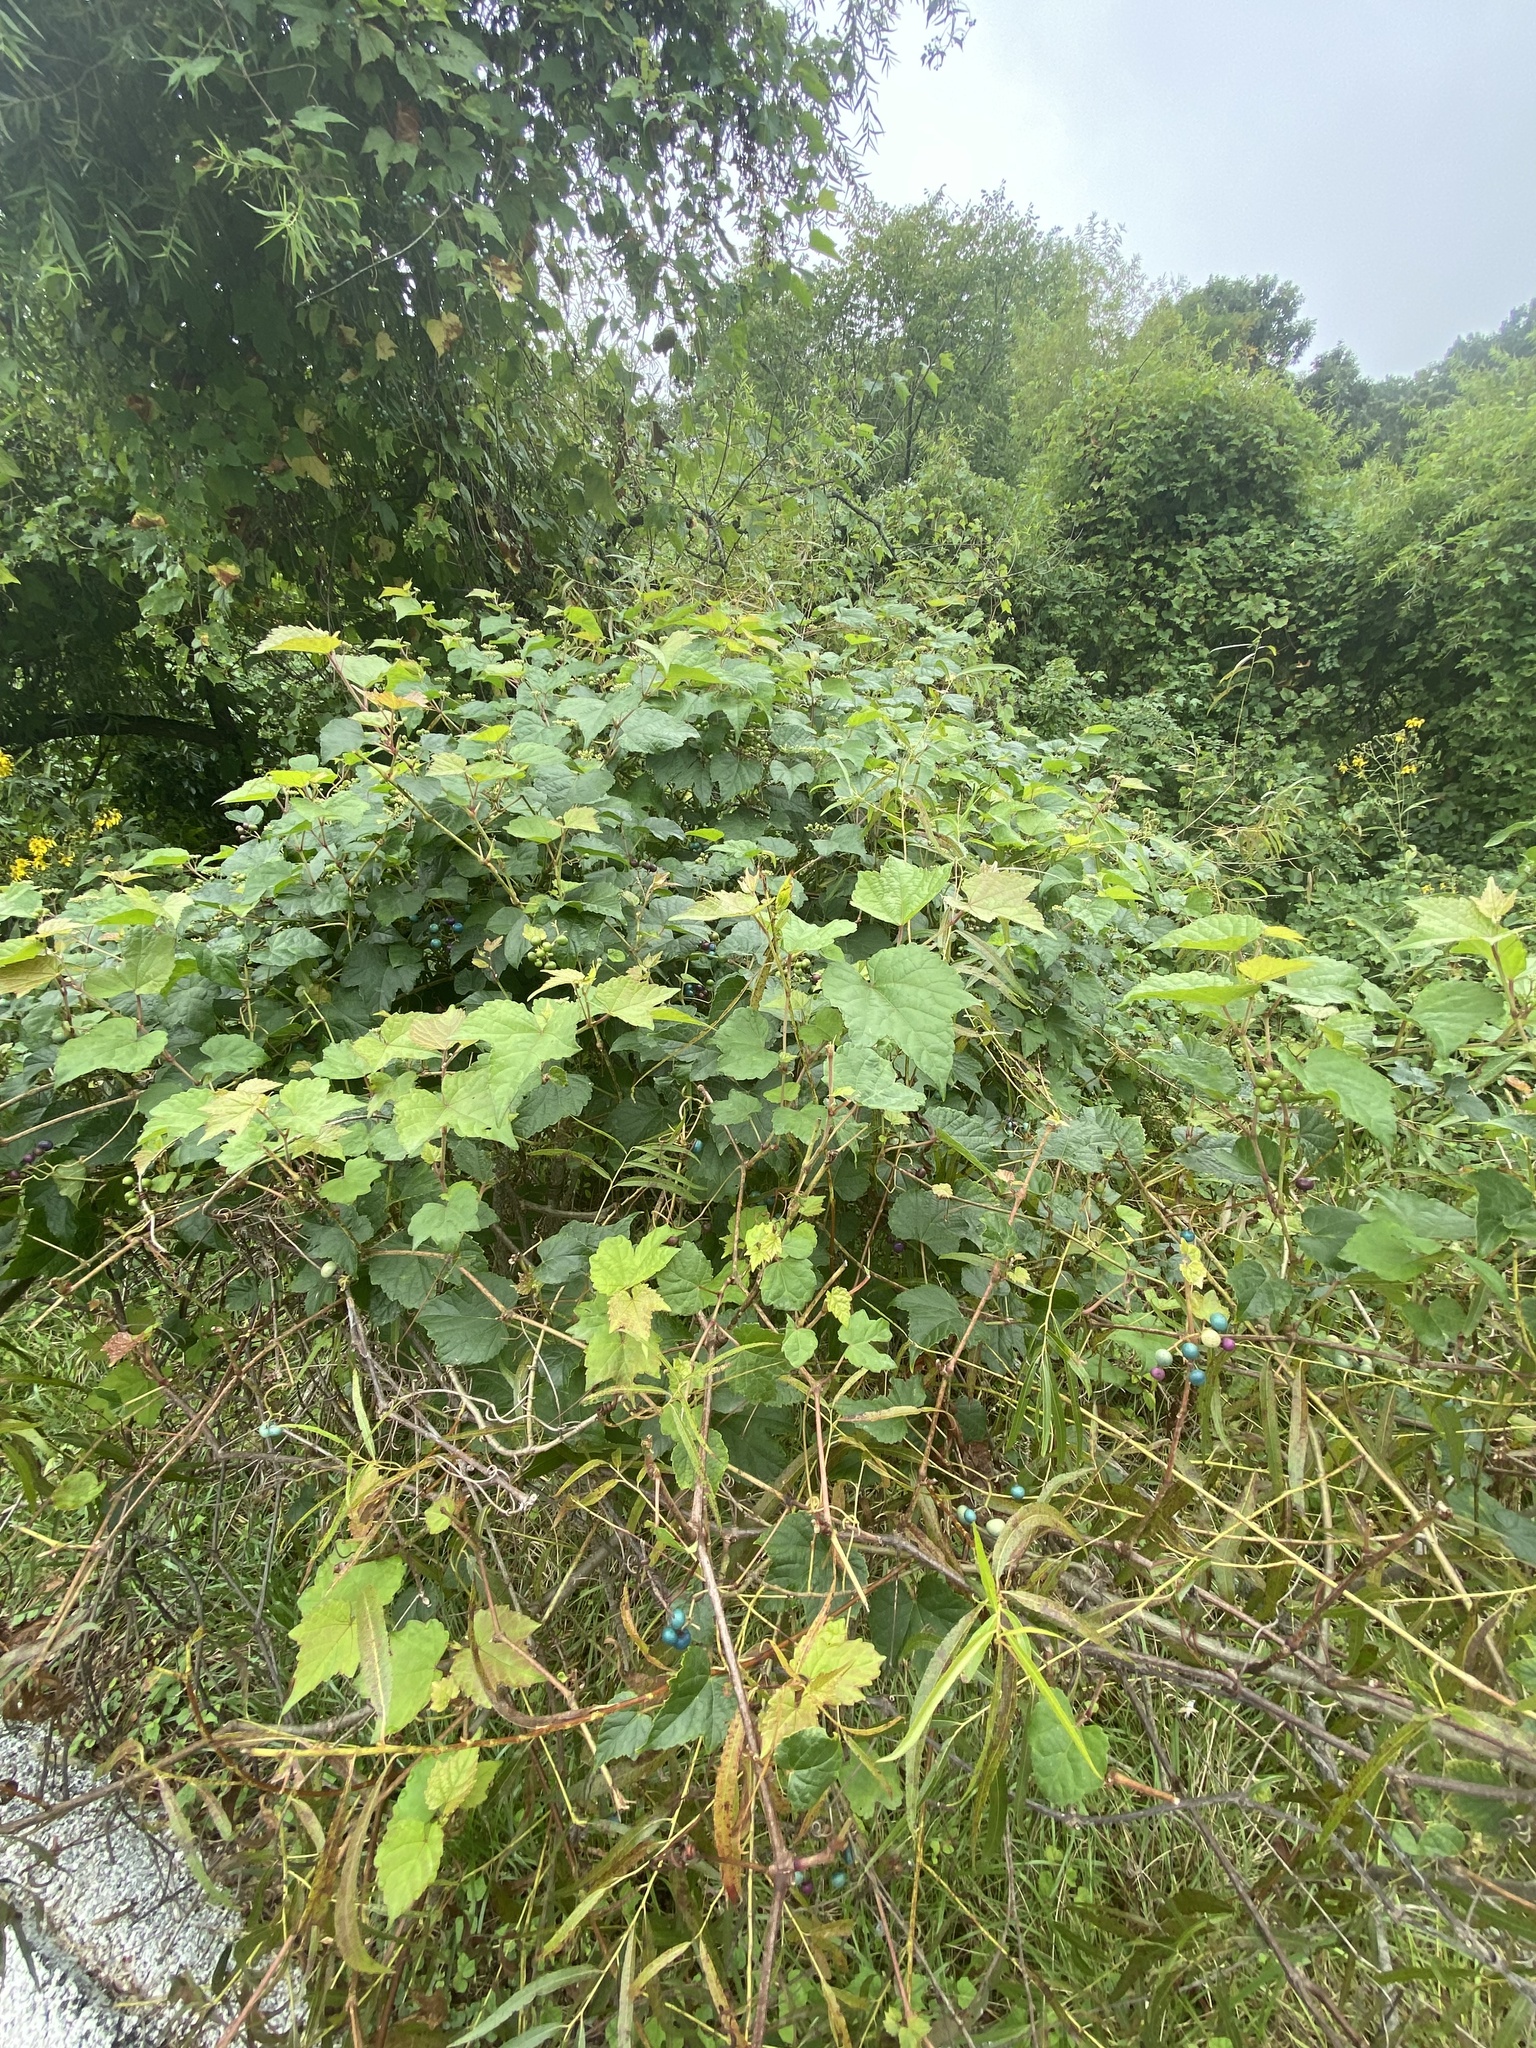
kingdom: Plantae
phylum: Tracheophyta
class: Magnoliopsida
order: Vitales
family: Vitaceae
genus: Ampelopsis
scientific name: Ampelopsis glandulosa
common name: Amur peppervine
